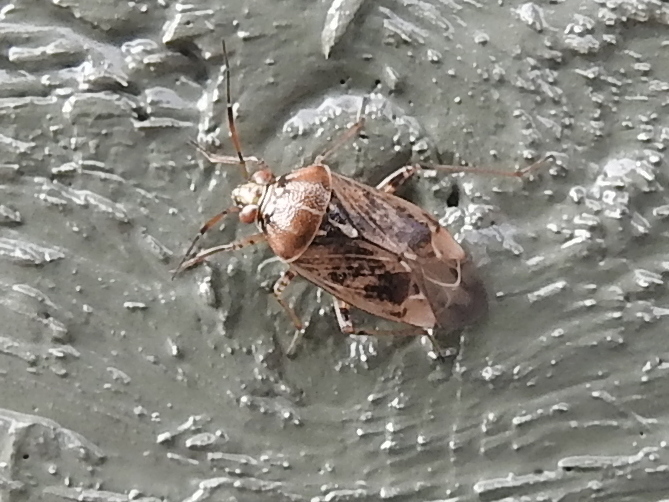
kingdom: Animalia
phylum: Arthropoda
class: Insecta
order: Hemiptera
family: Miridae
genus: Lygus
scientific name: Lygus rugulipennis
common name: European tarnished plant bug
